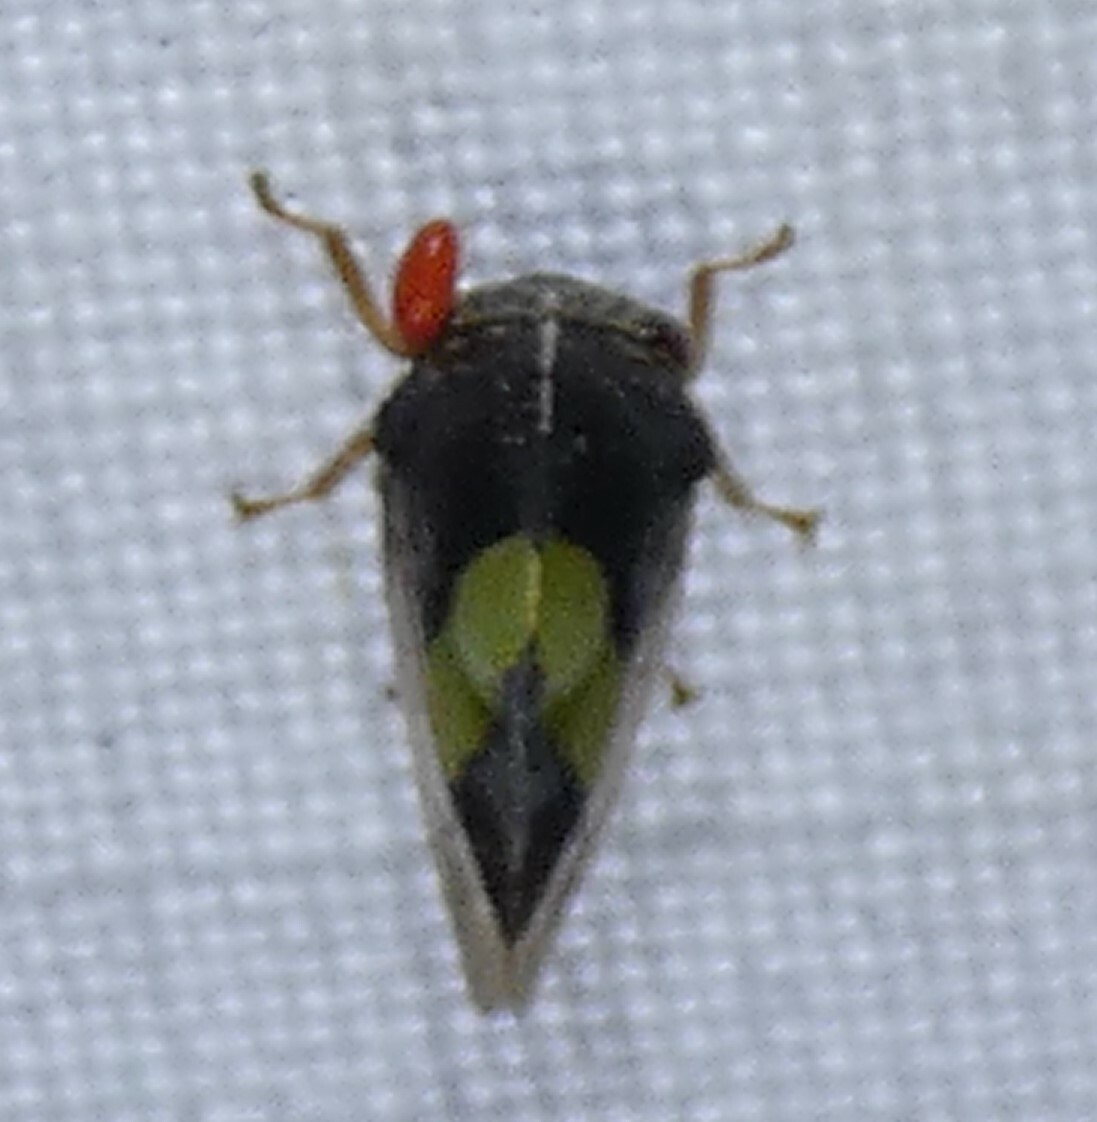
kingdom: Animalia
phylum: Arthropoda
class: Insecta
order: Hemiptera
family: Membracidae
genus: Smilia
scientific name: Smilia fasciata
